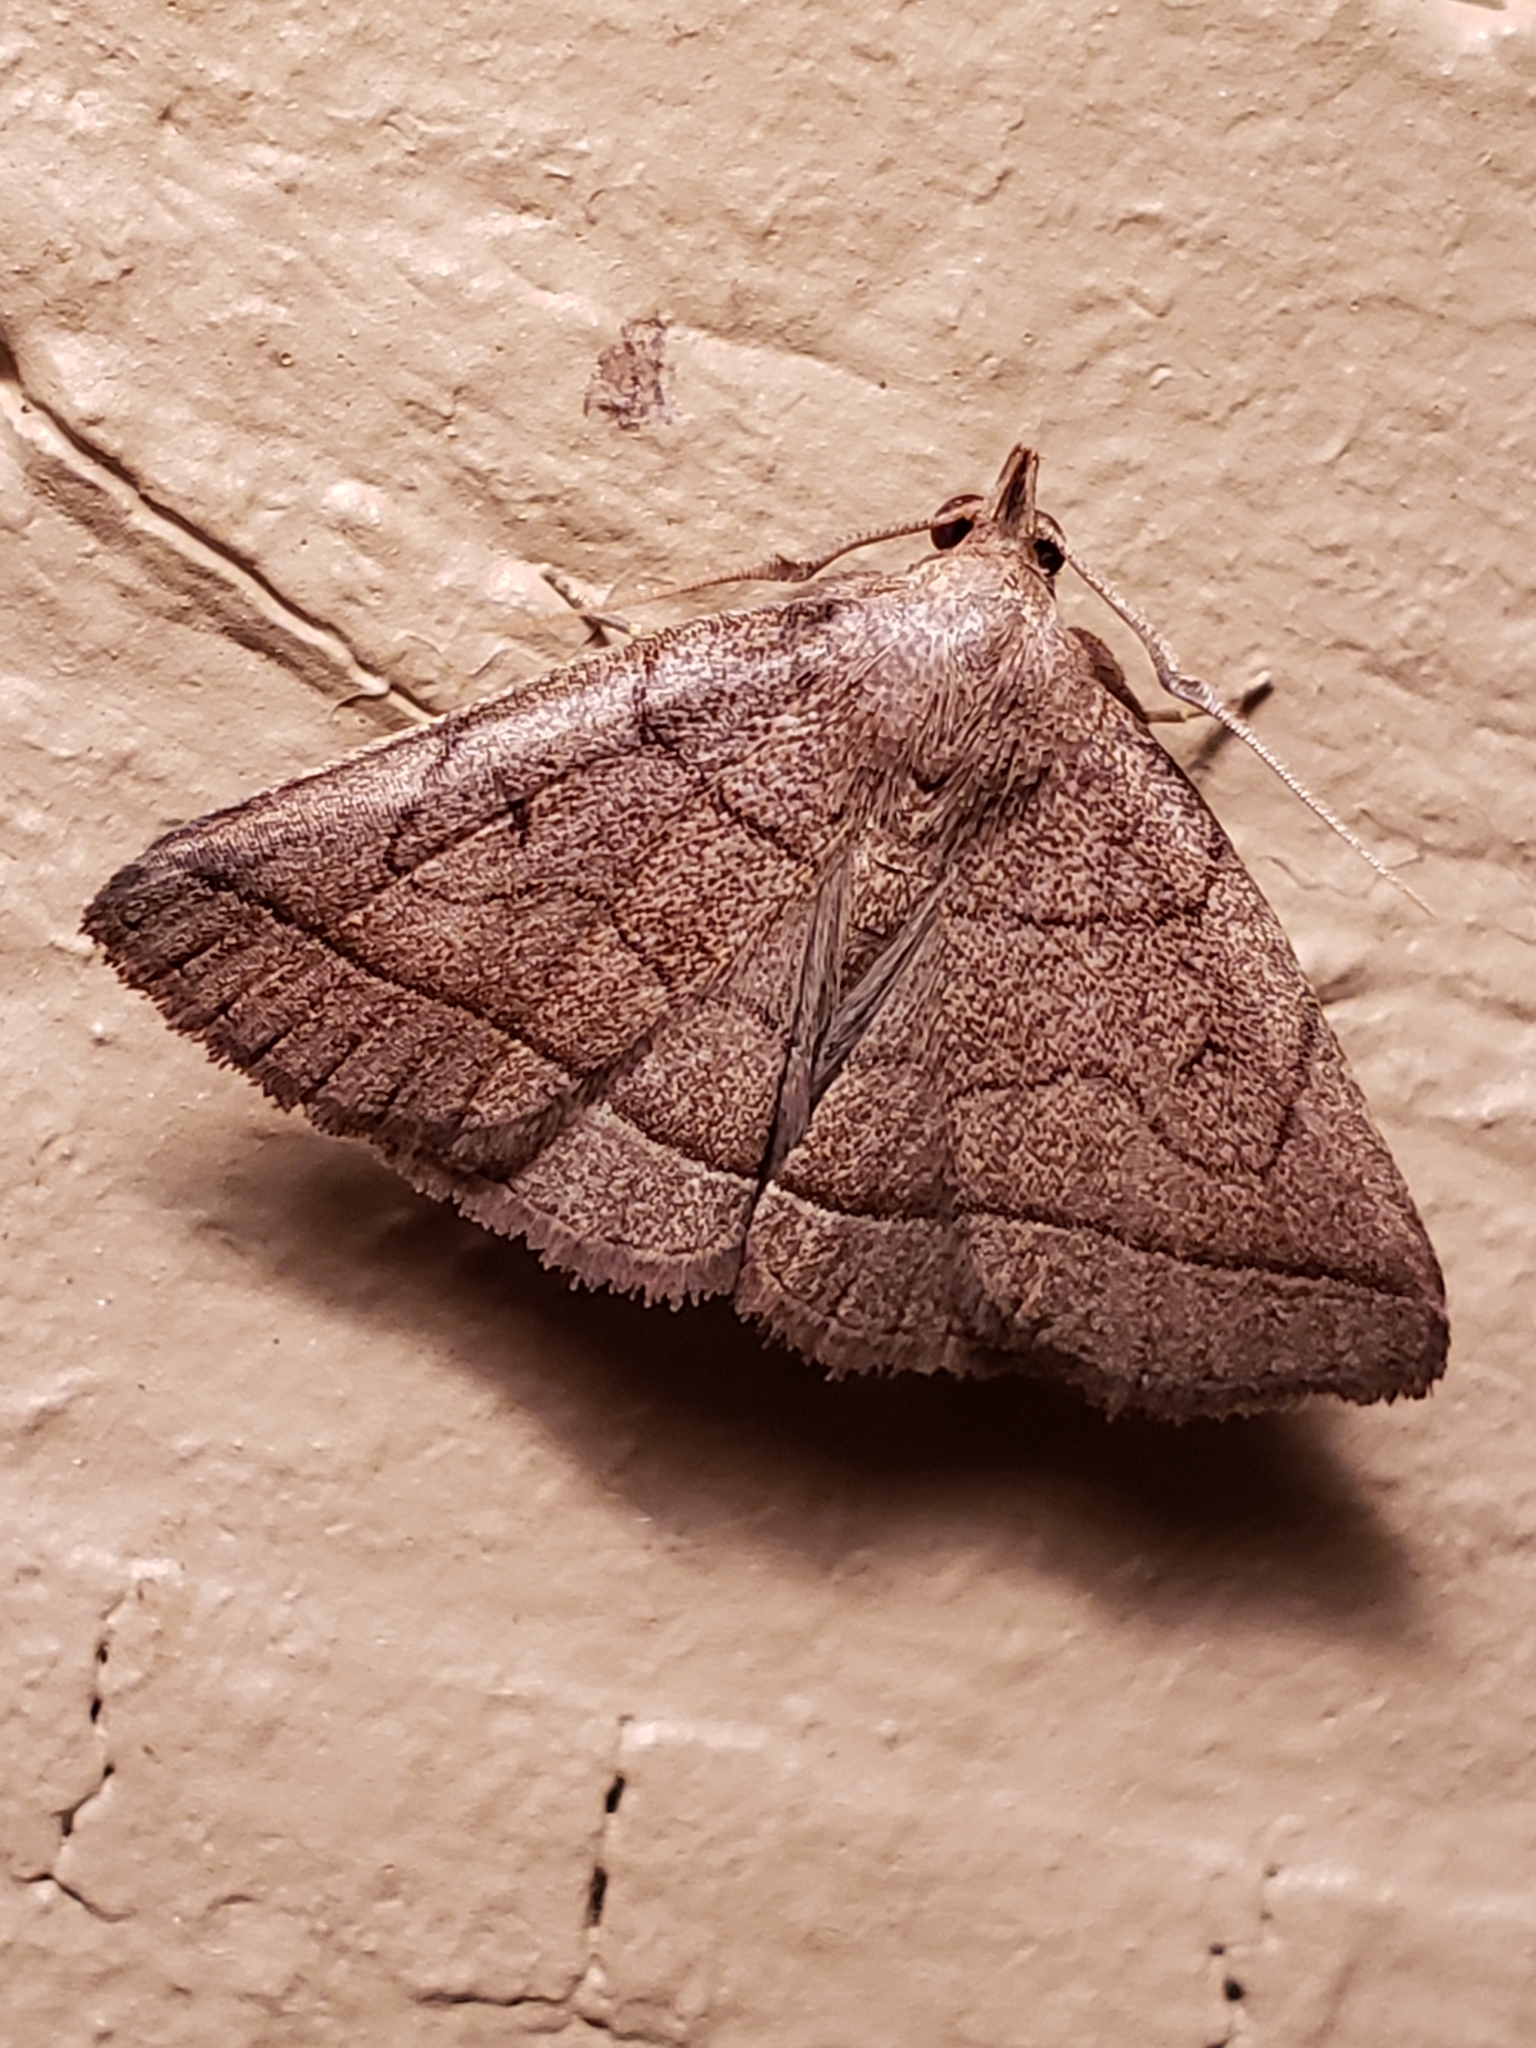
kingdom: Animalia
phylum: Arthropoda
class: Insecta
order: Lepidoptera
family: Erebidae
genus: Zanclognatha
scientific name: Zanclognatha cruralis
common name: Early fan-foot
